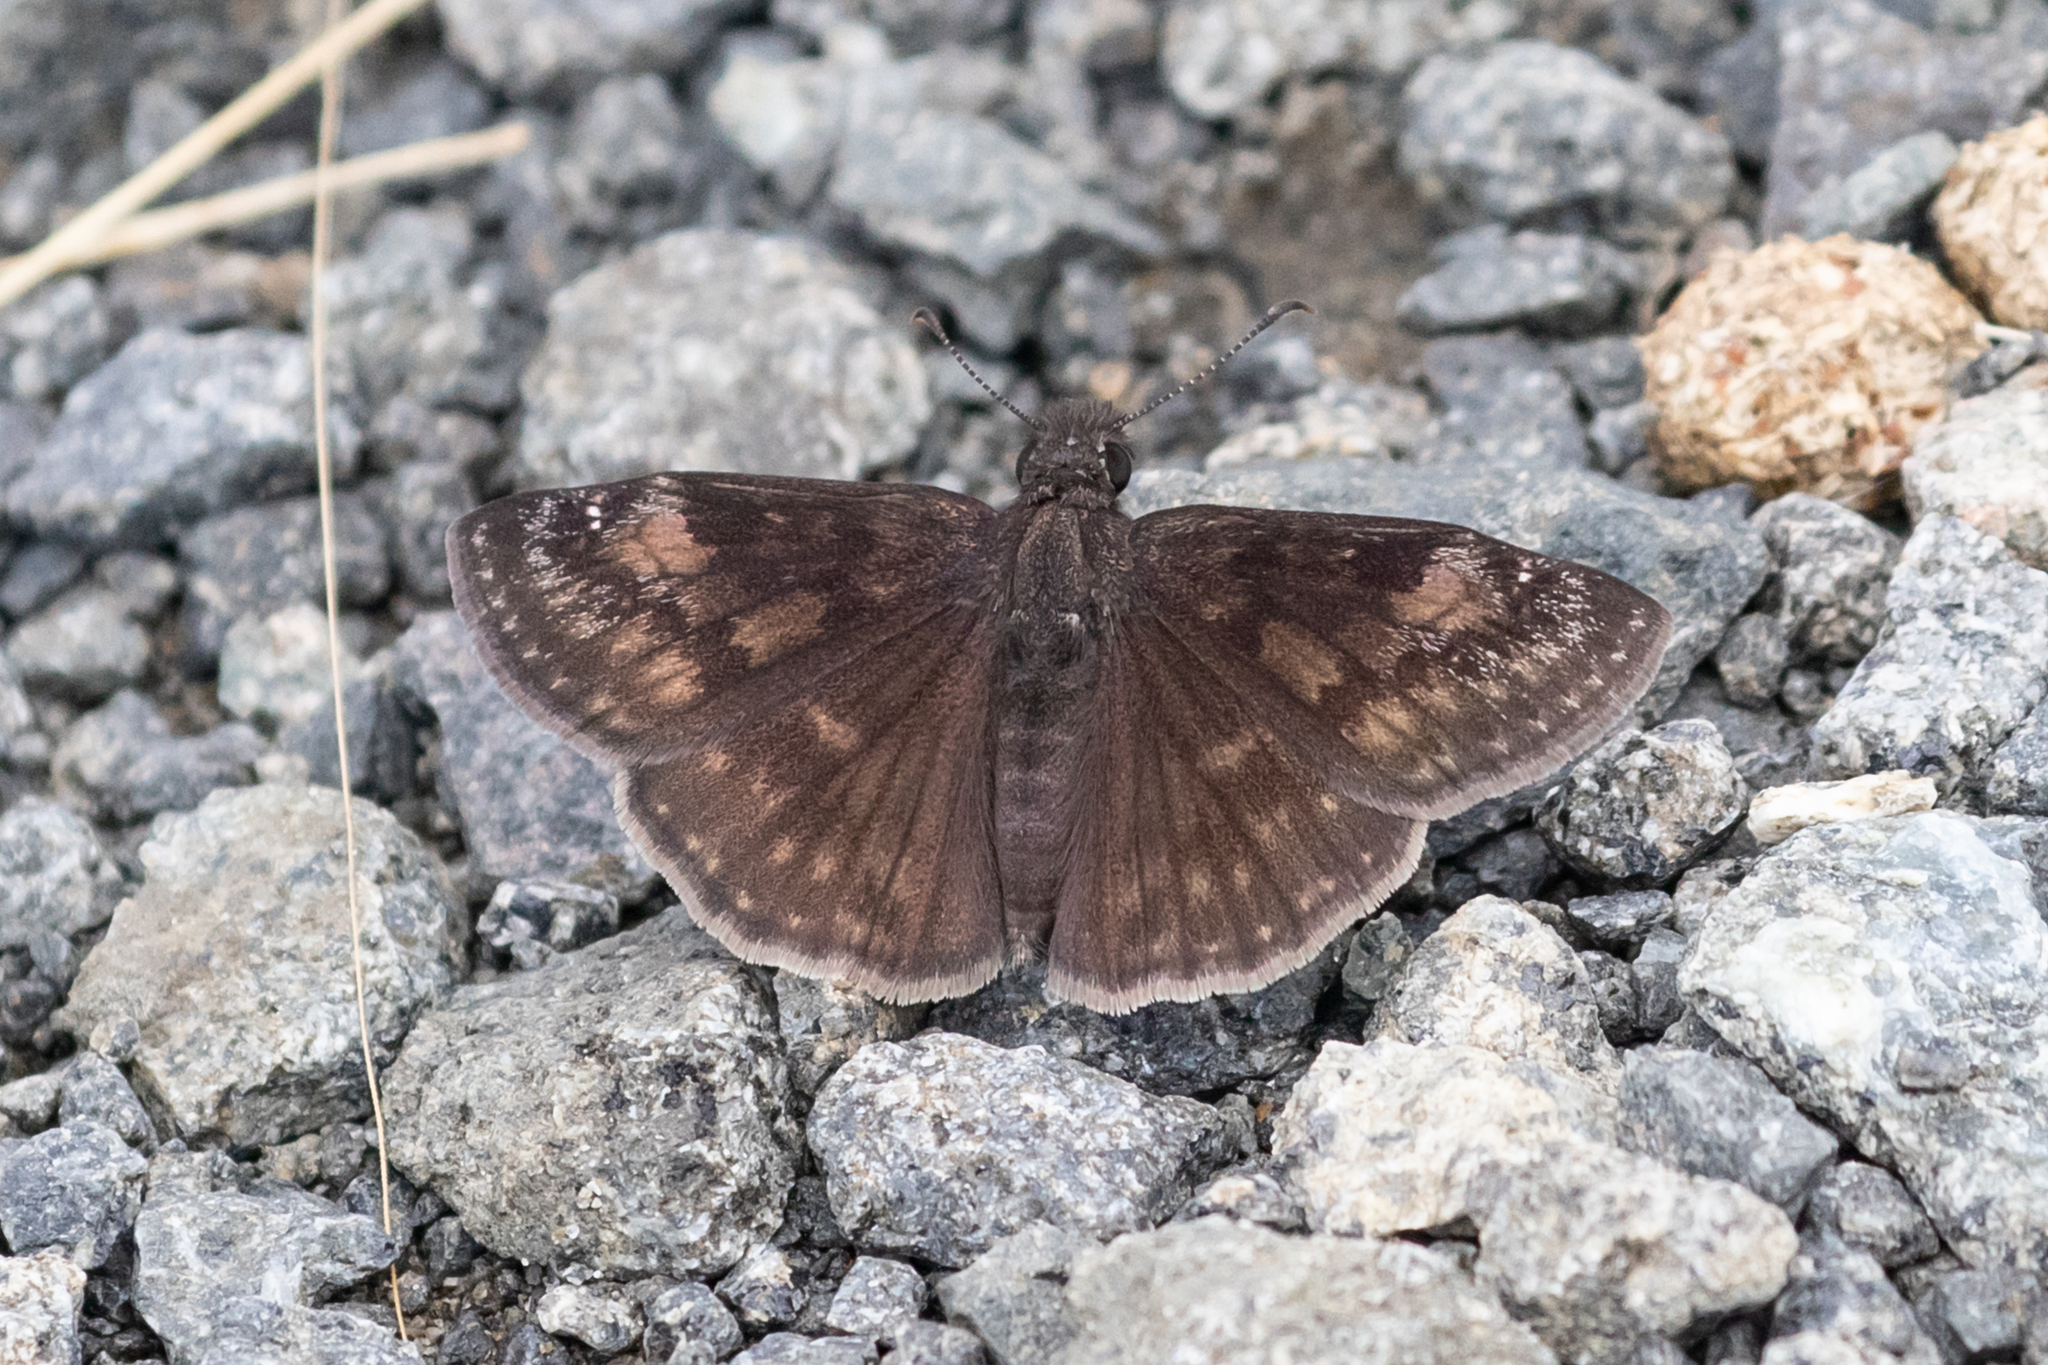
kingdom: Animalia
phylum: Arthropoda
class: Insecta
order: Lepidoptera
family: Hesperiidae
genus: Erynnis
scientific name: Erynnis baptisiae
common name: Wild indigo duskywing
